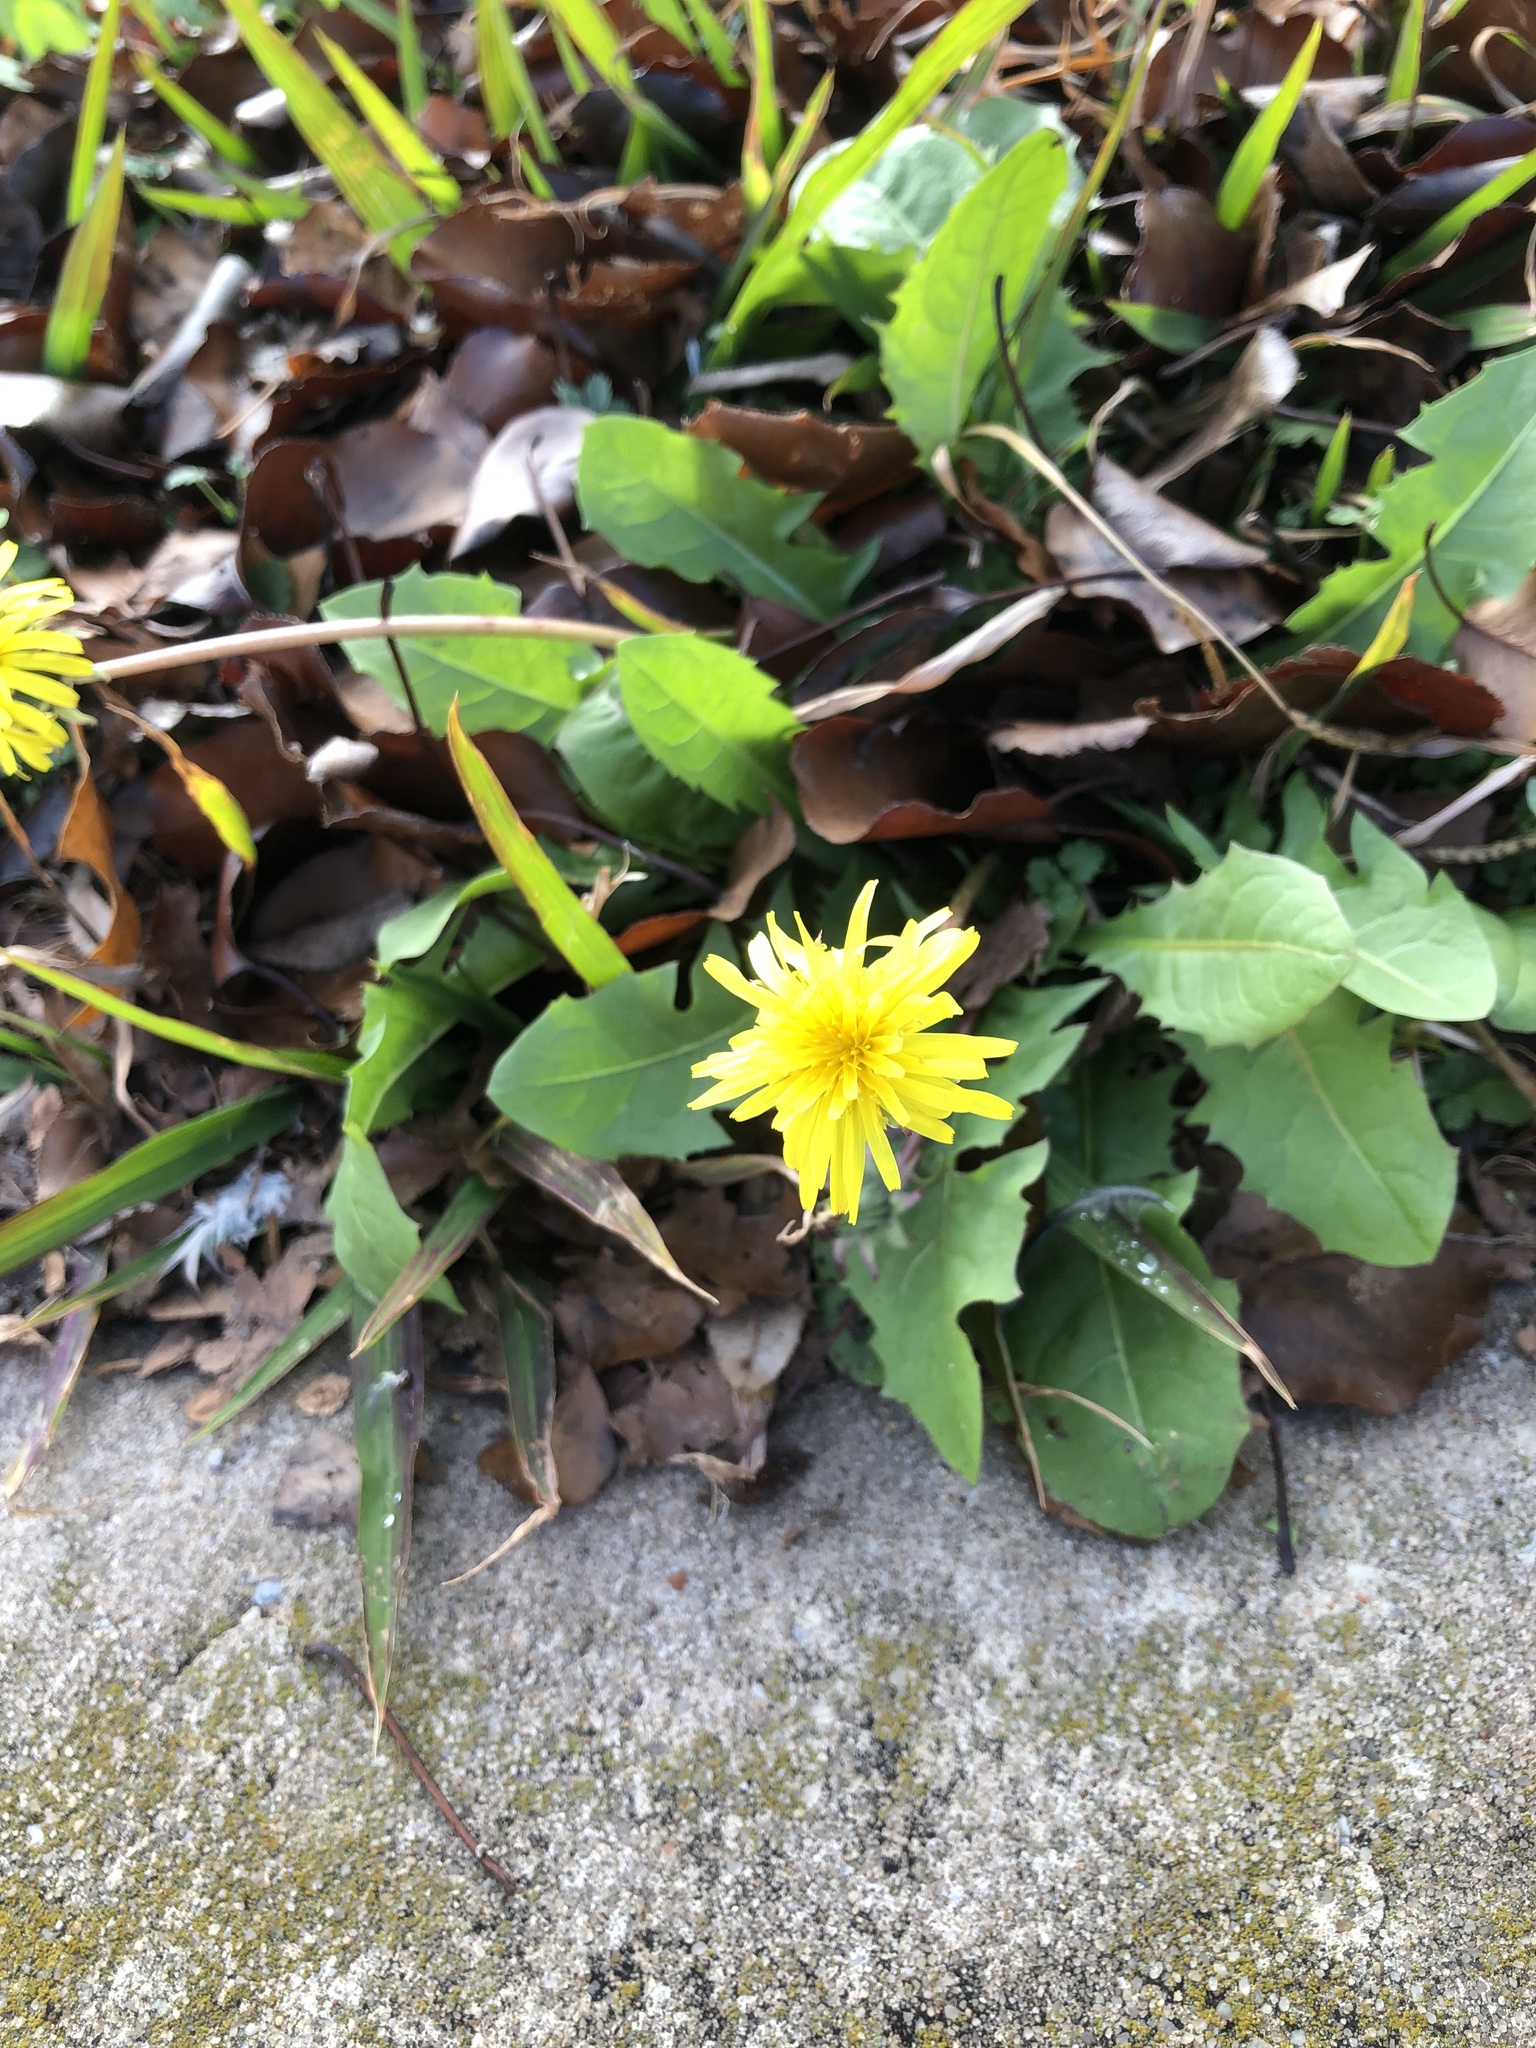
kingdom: Plantae
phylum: Tracheophyta
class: Magnoliopsida
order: Asterales
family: Asteraceae
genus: Taraxacum
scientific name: Taraxacum
